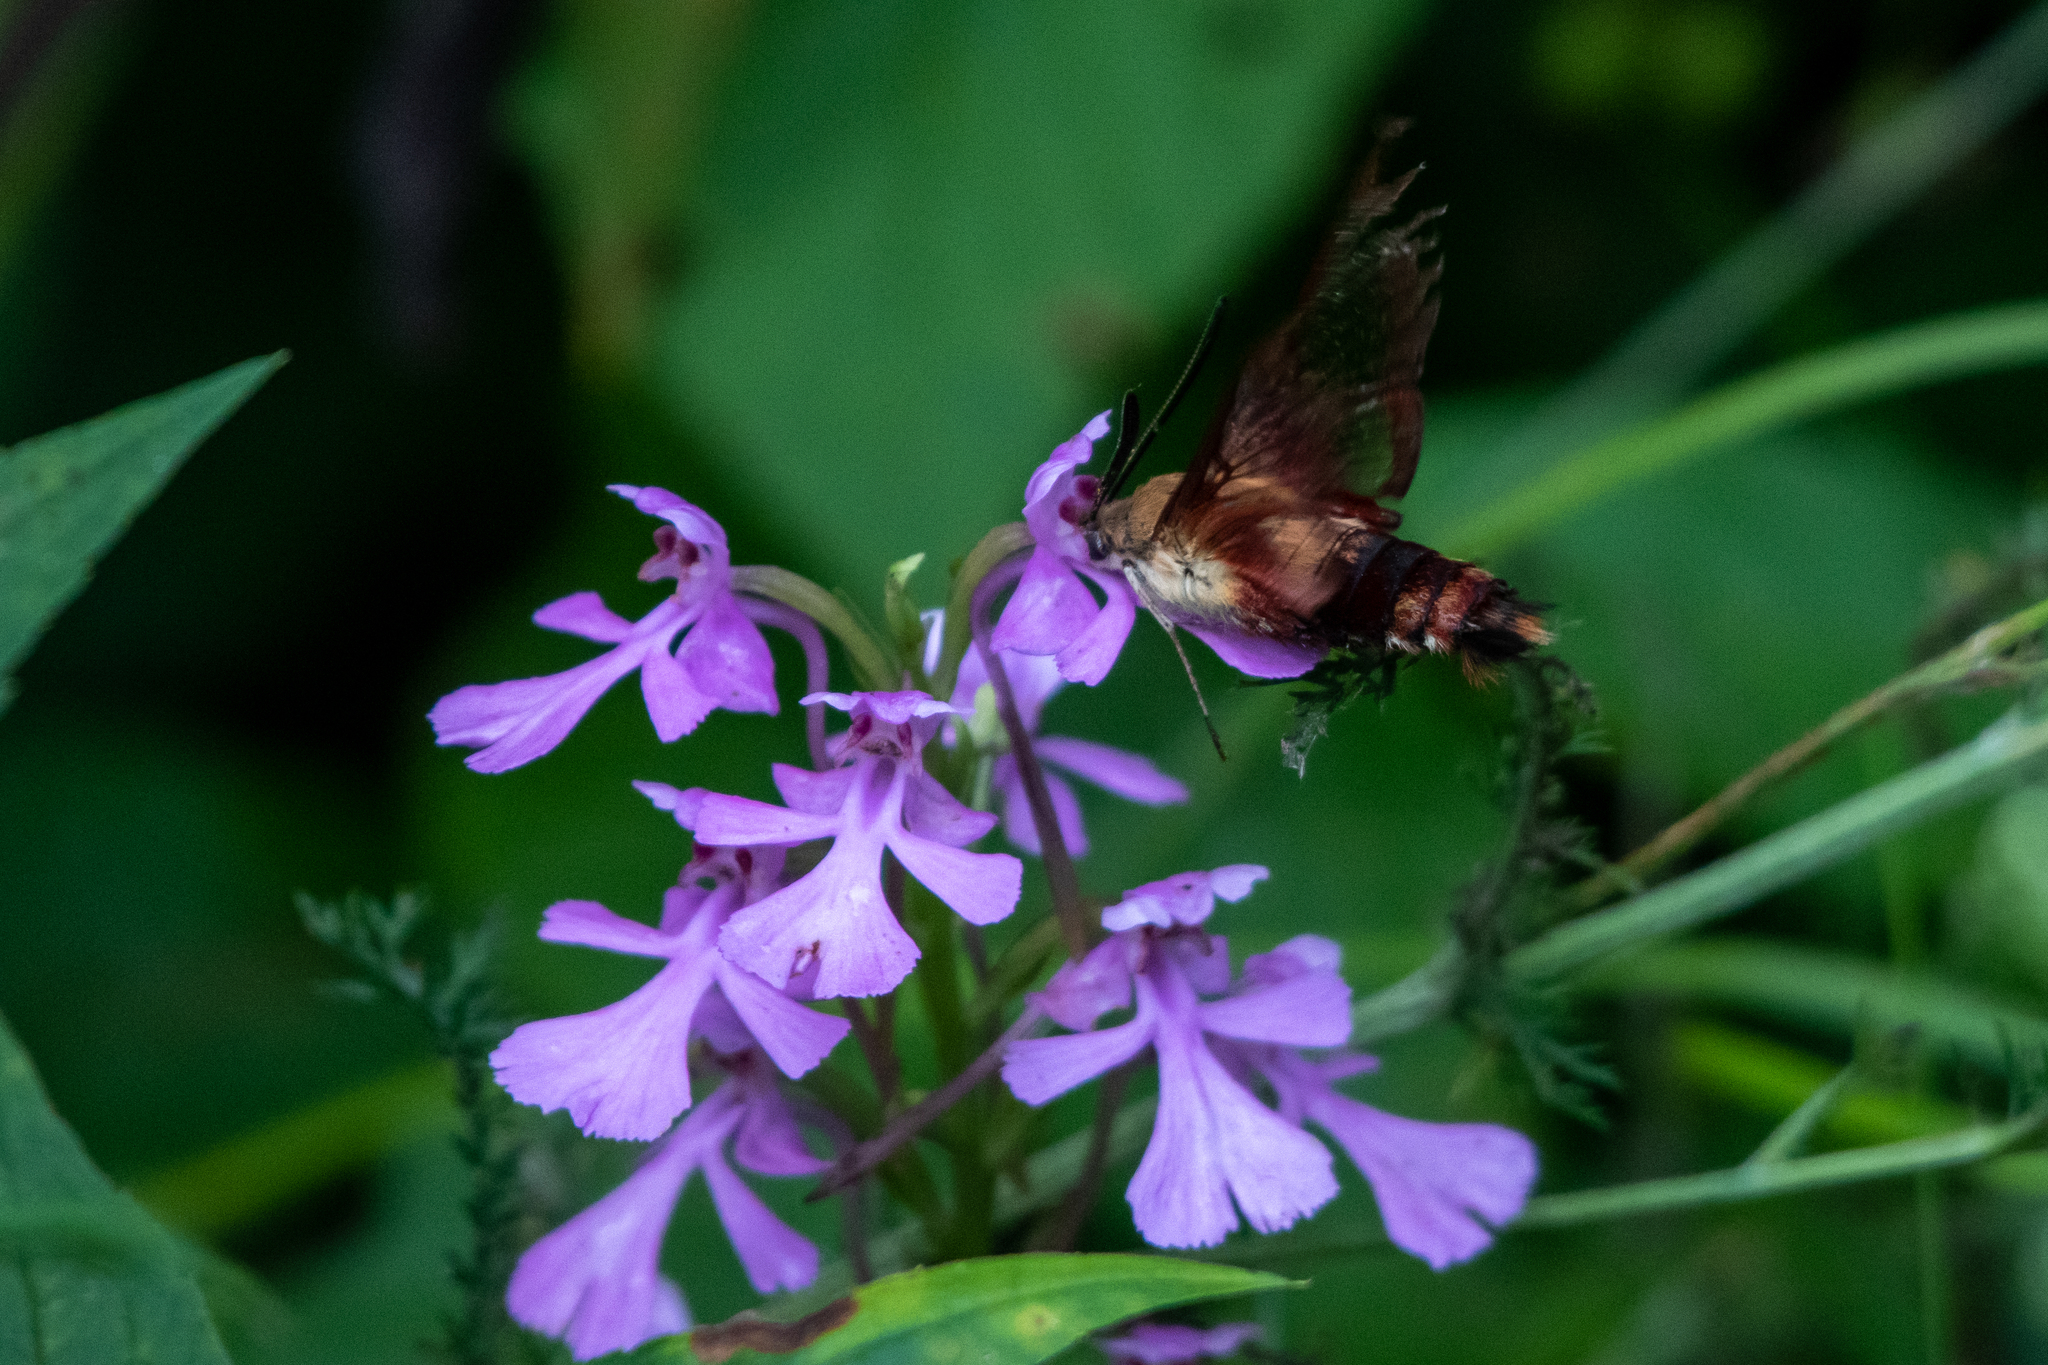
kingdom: Animalia
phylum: Arthropoda
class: Insecta
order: Lepidoptera
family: Sphingidae
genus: Hemaris
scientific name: Hemaris thysbe
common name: Common clear-wing
